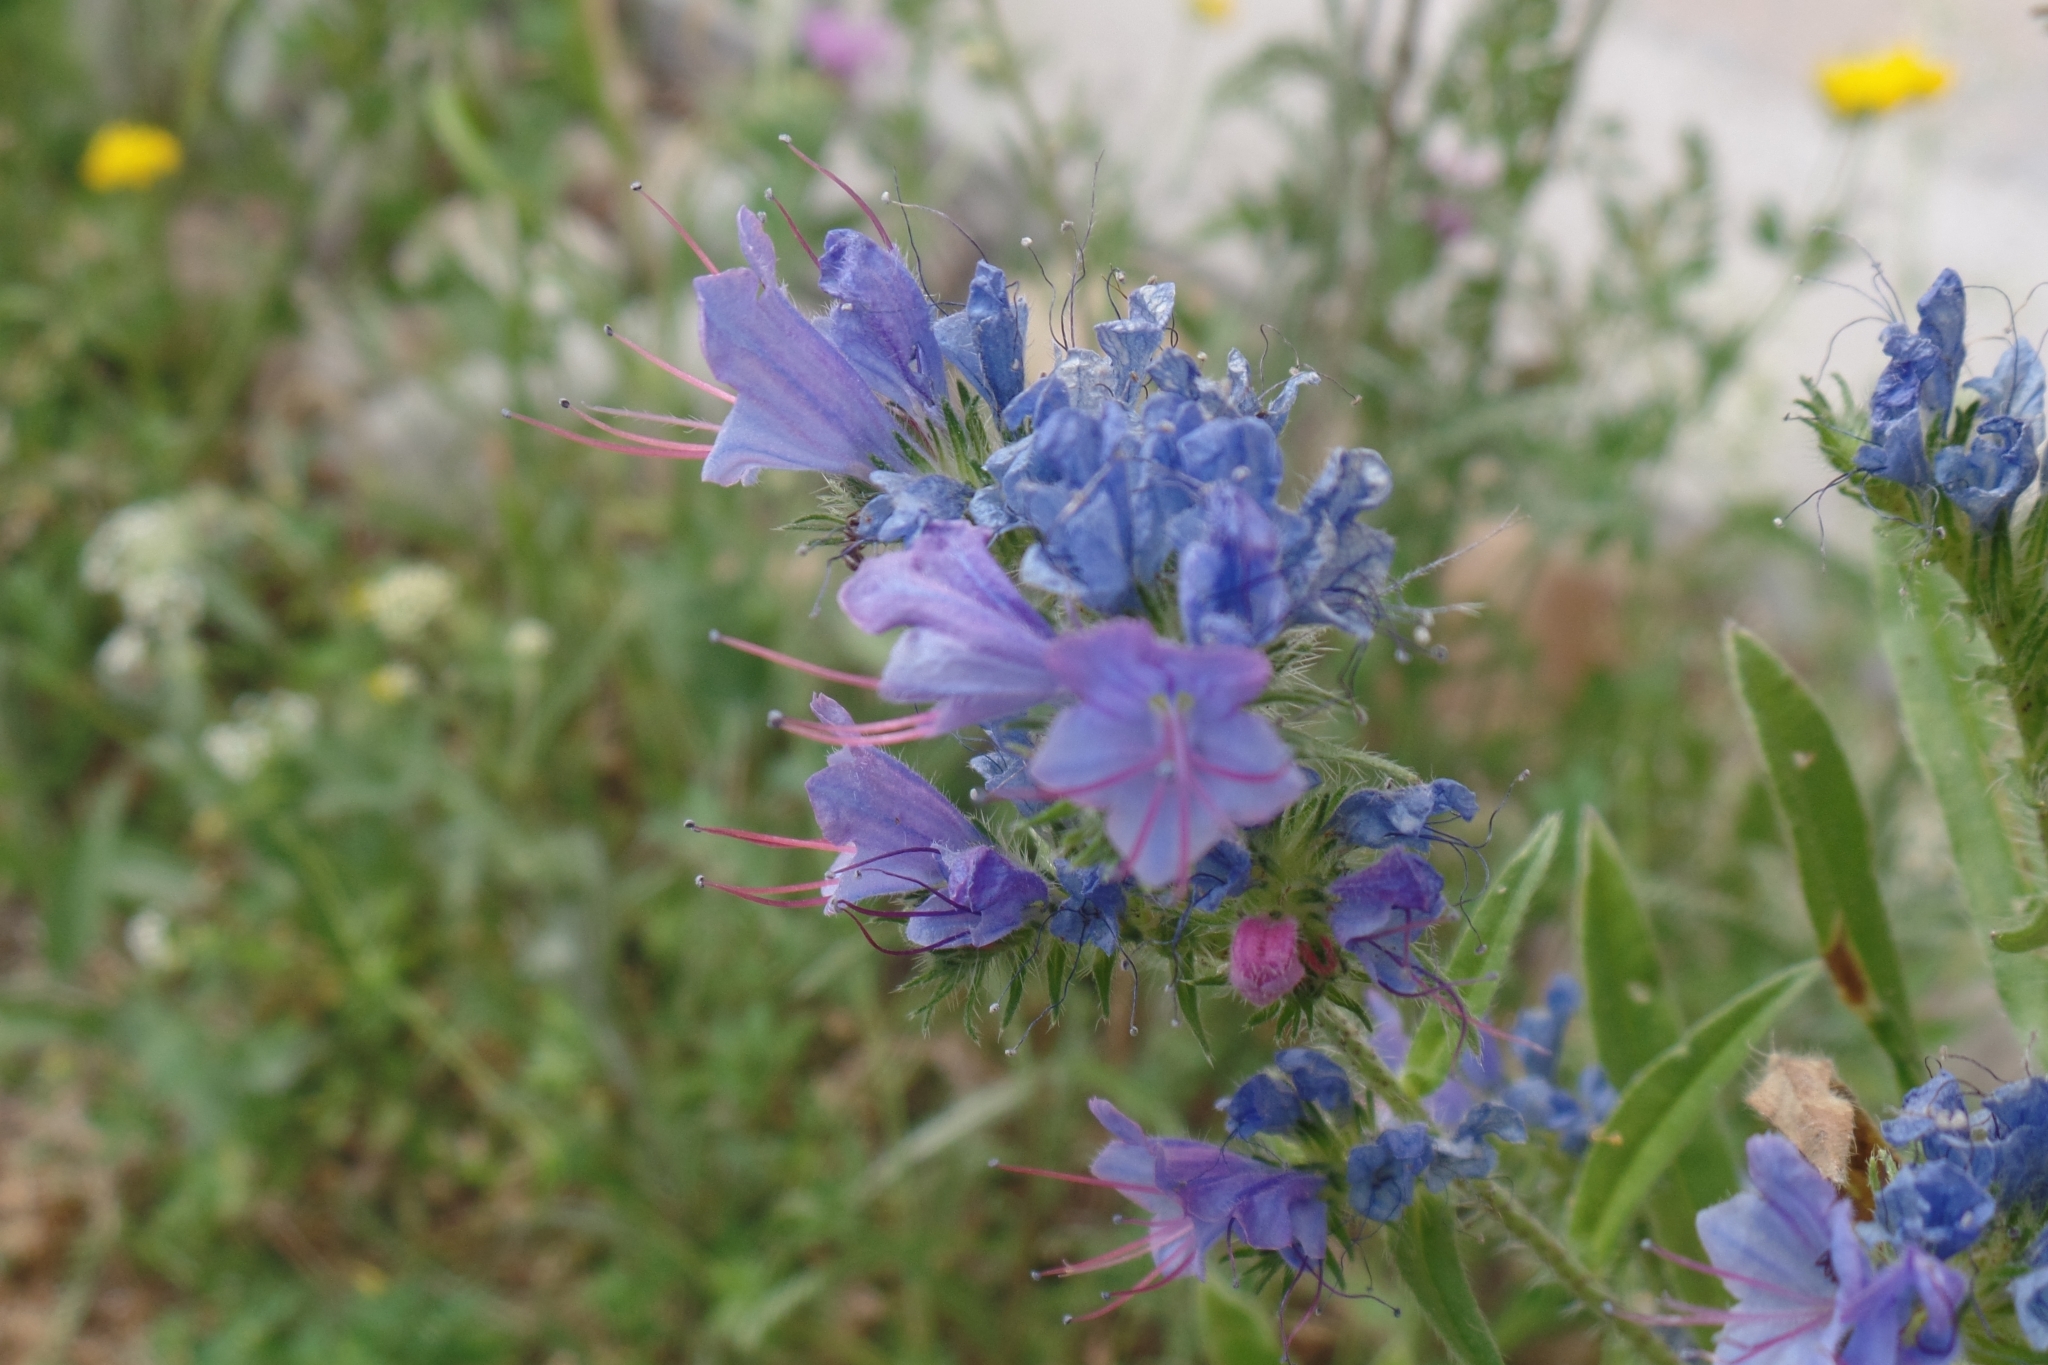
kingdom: Plantae
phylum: Tracheophyta
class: Magnoliopsida
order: Boraginales
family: Boraginaceae
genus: Echium
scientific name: Echium vulgare
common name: Common viper's bugloss
